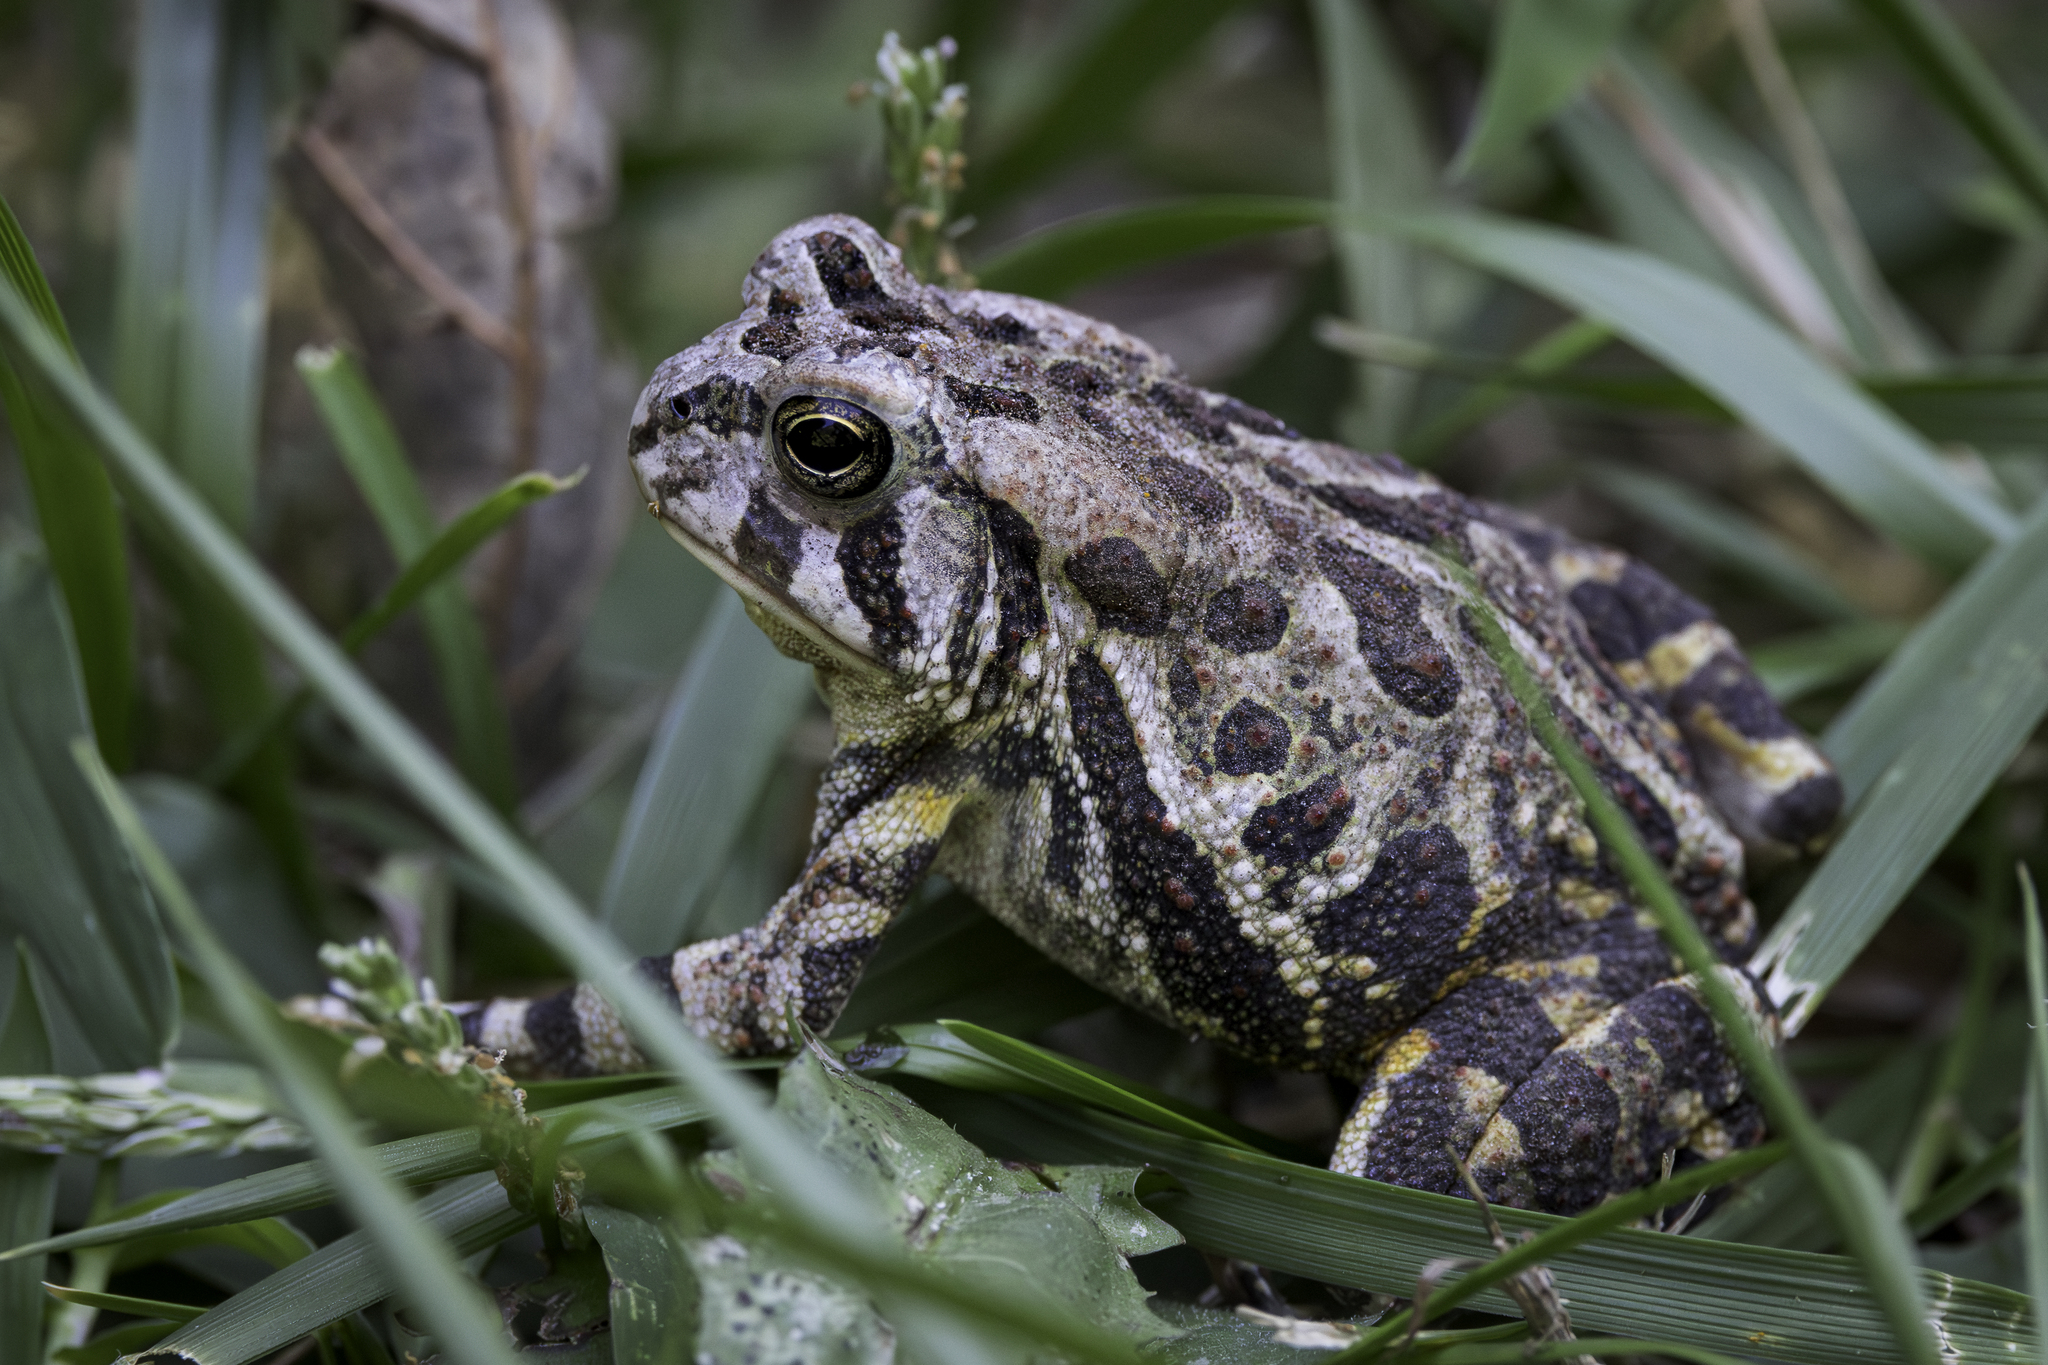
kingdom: Animalia
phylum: Chordata
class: Amphibia
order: Anura
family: Bufonidae
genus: Anaxyrus
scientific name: Anaxyrus fowleri
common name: Fowler's toad
